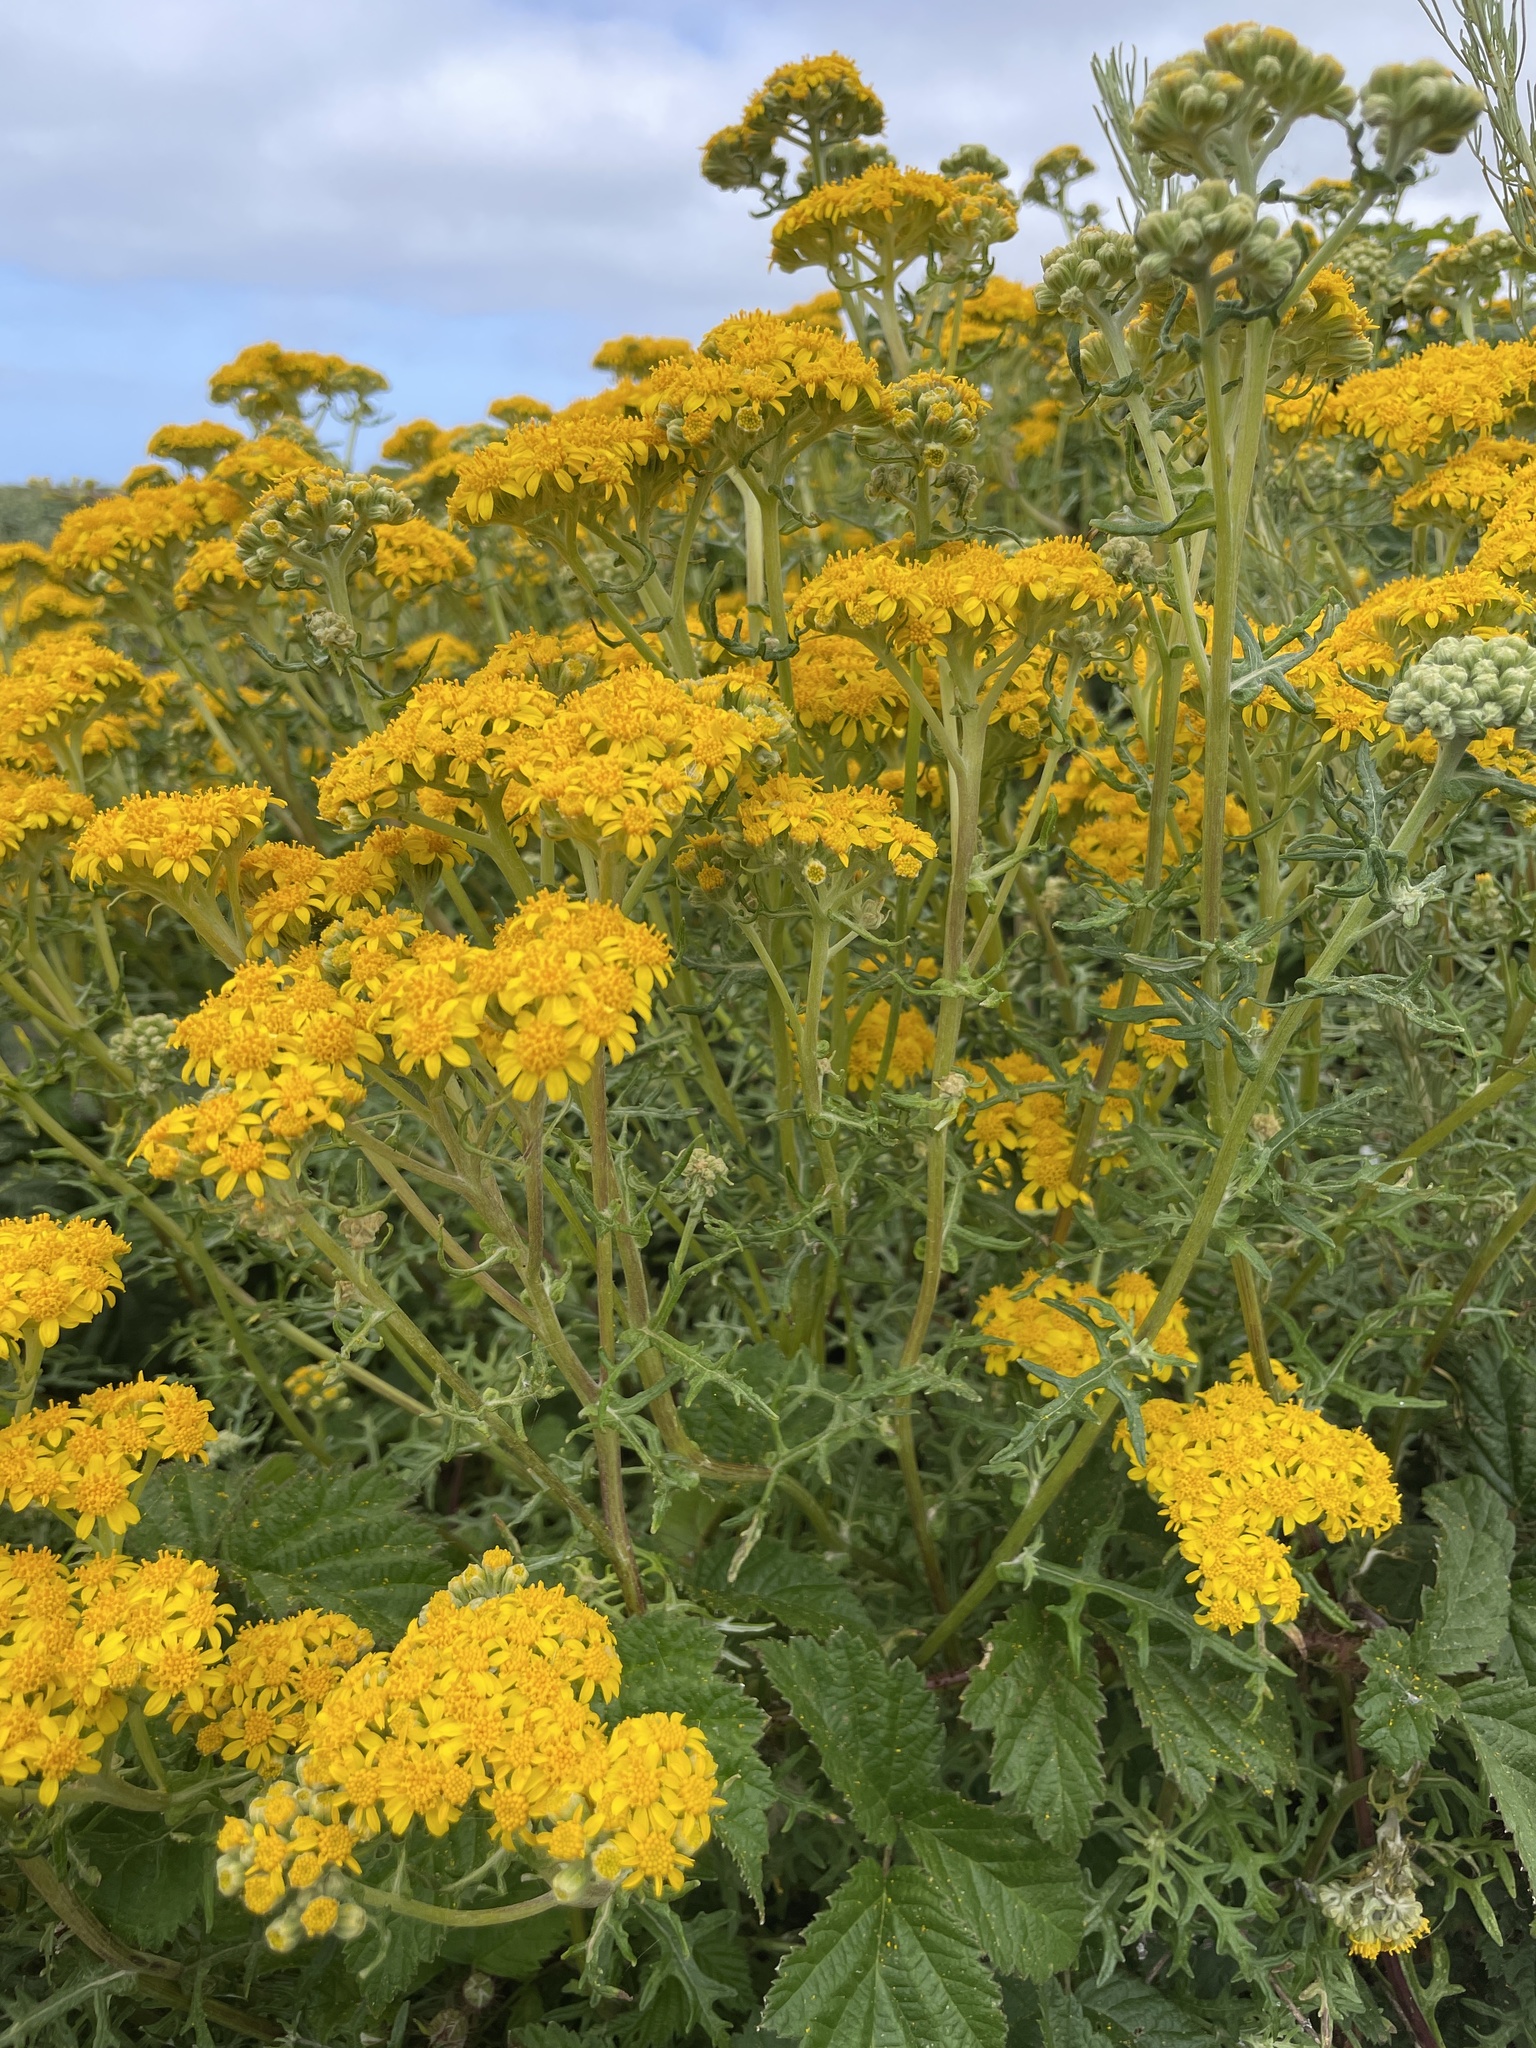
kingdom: Plantae
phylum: Tracheophyta
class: Magnoliopsida
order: Asterales
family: Asteraceae
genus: Eriophyllum
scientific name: Eriophyllum staechadifolium
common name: Lizardtail
